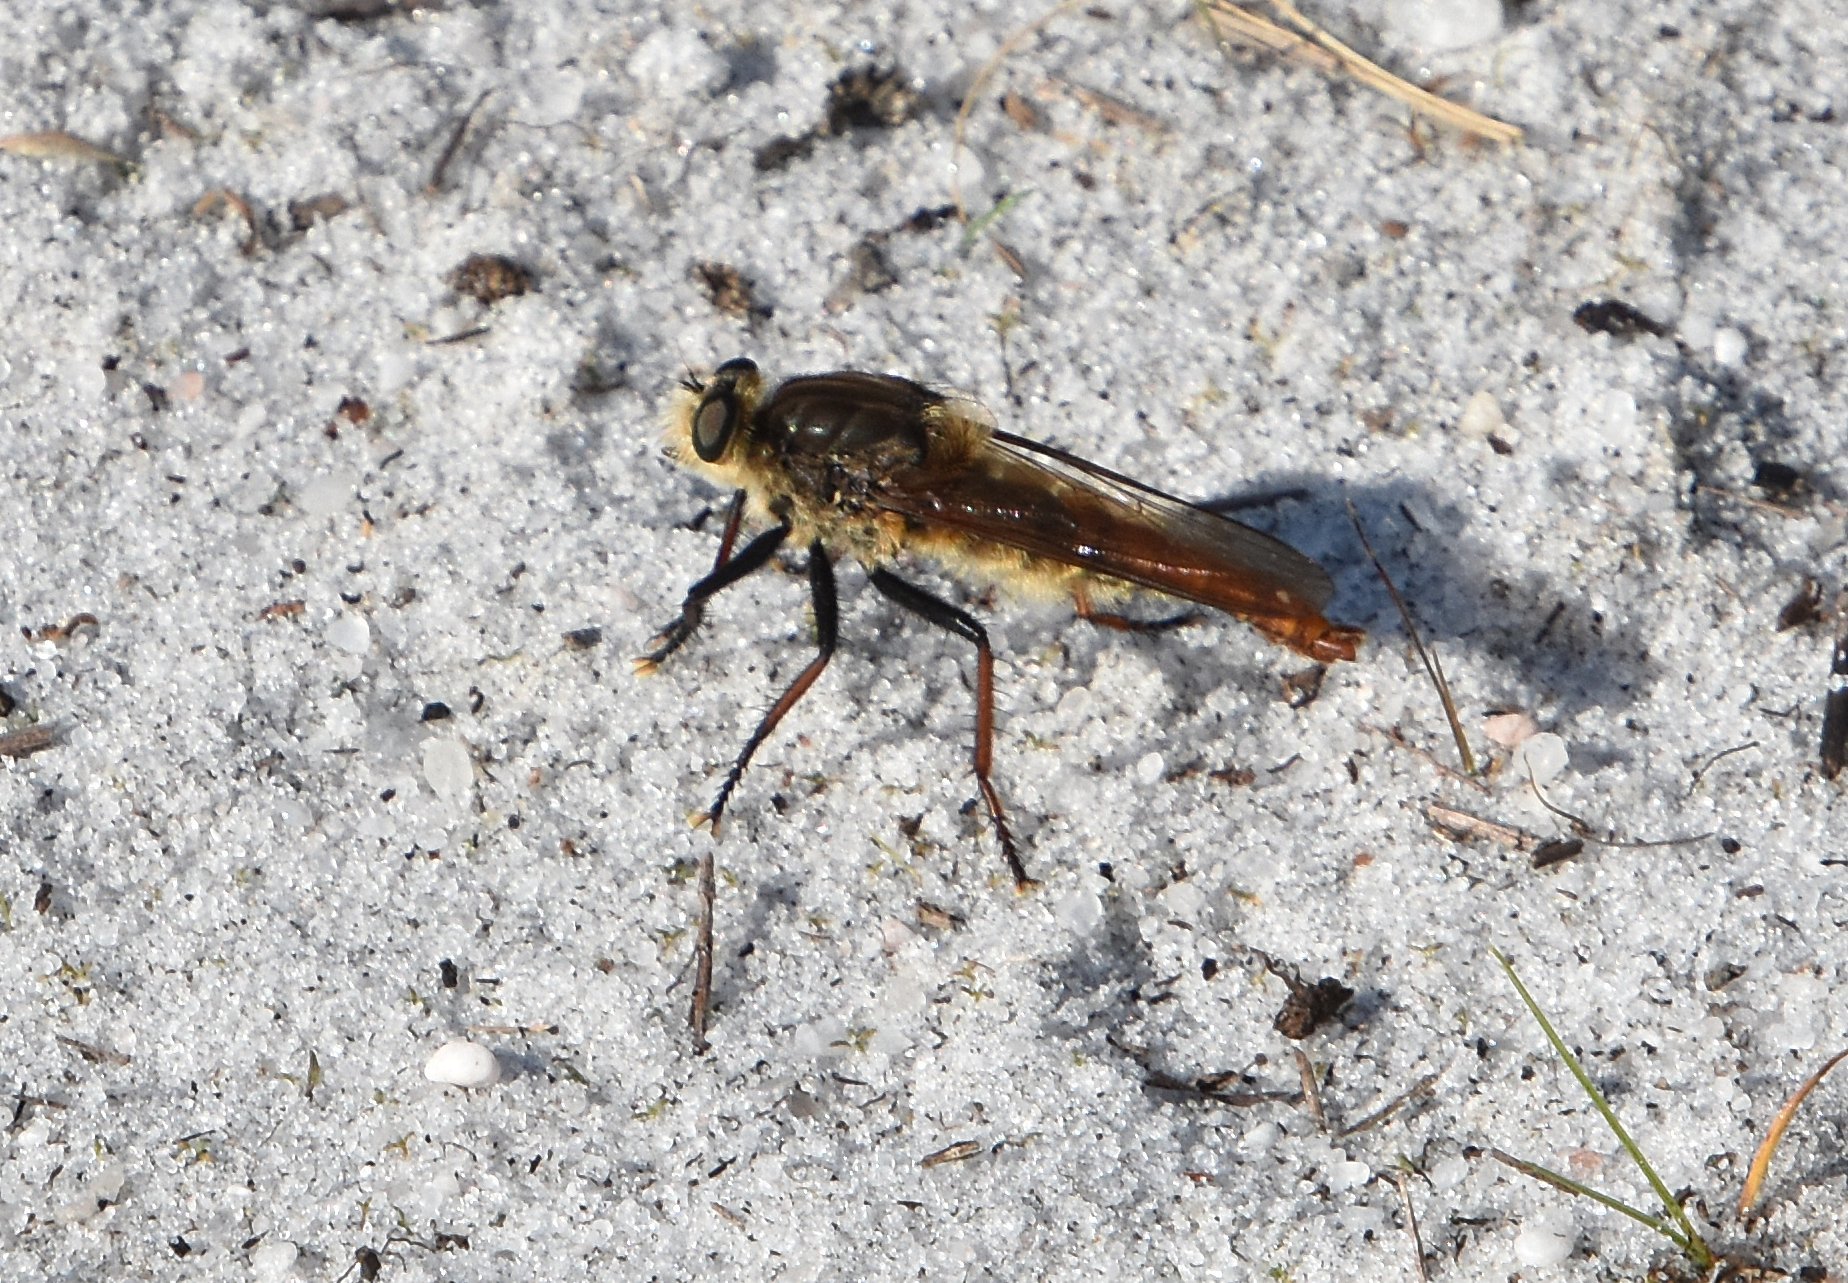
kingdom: Animalia
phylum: Arthropoda
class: Insecta
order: Diptera
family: Asilidae
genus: Proctacanthus
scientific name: Proctacanthus fulviventris
